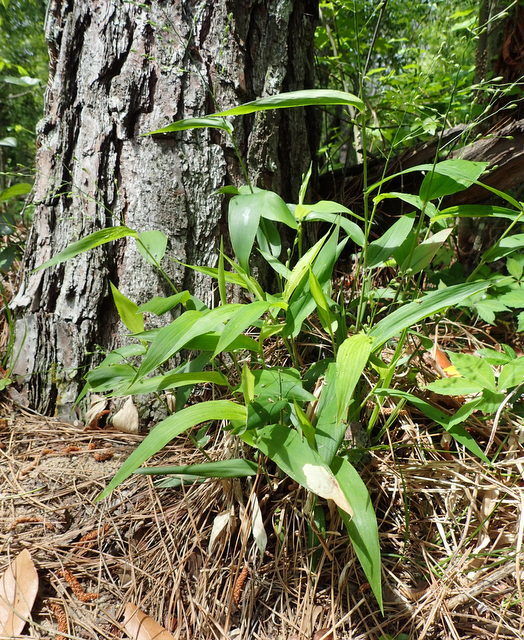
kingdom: Plantae
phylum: Tracheophyta
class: Liliopsida
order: Poales
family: Poaceae
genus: Dichanthelium
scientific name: Dichanthelium latifolium
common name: Broad-leaved panicgrass
